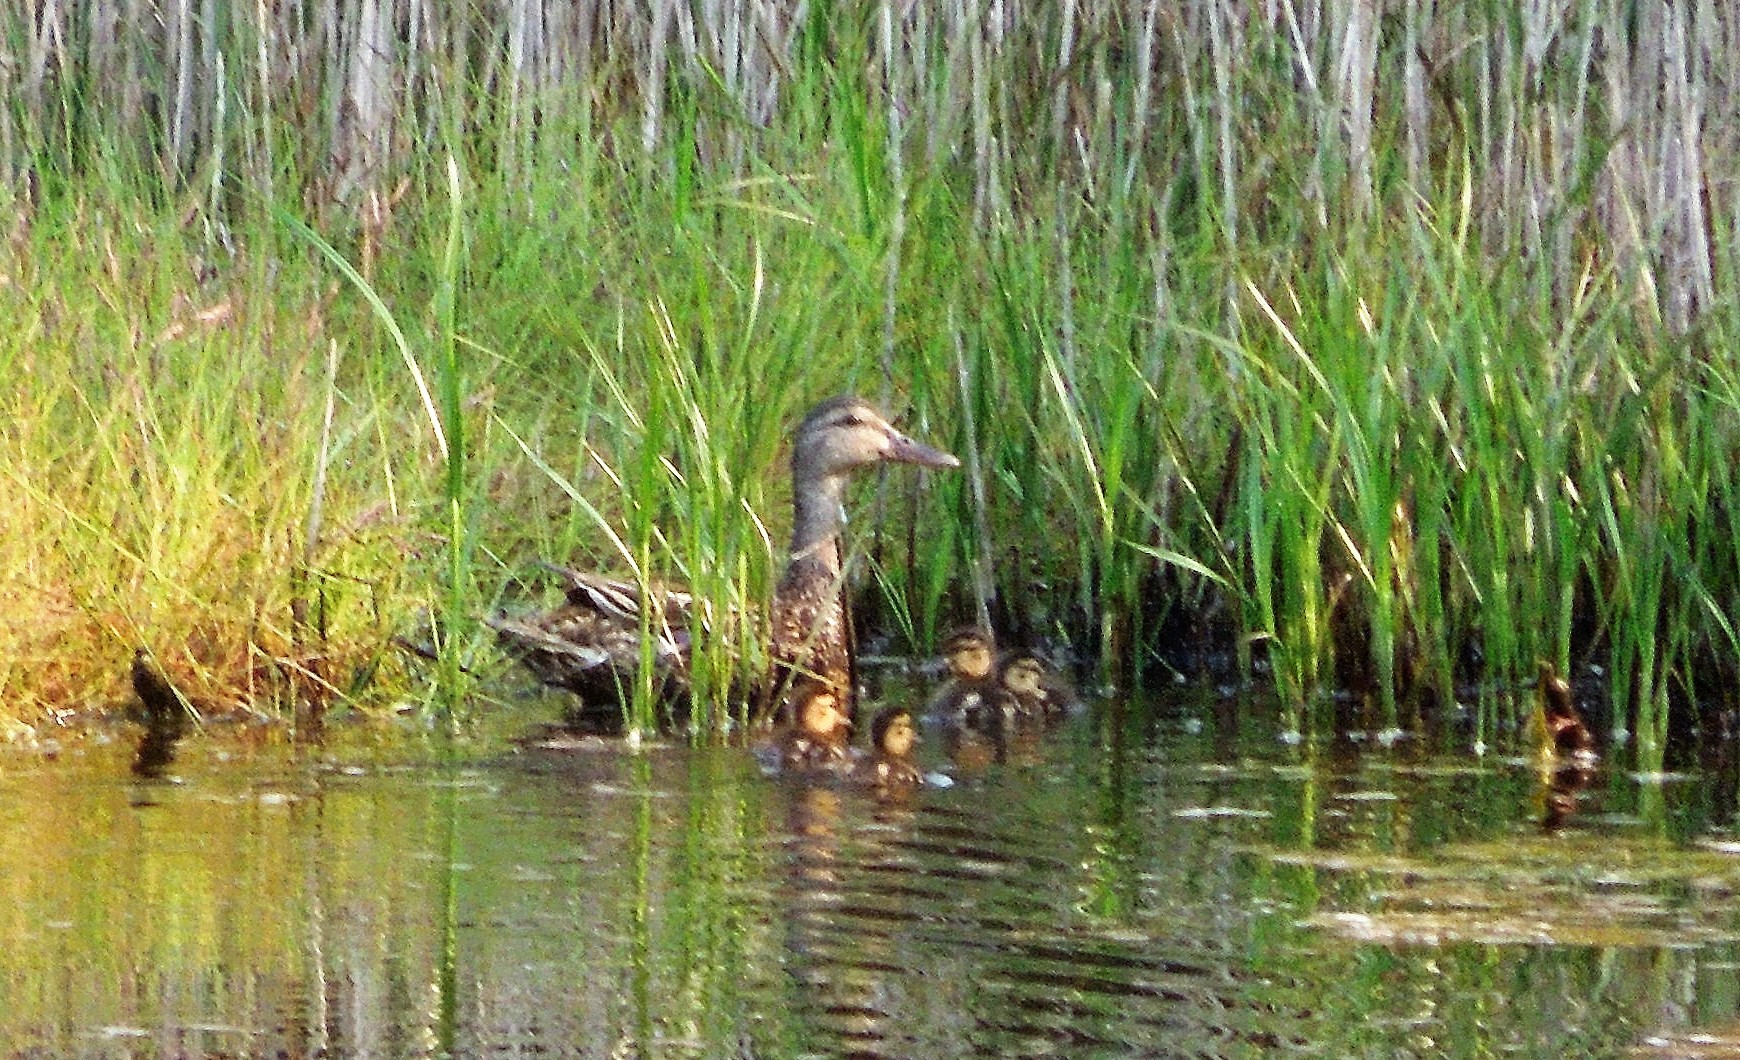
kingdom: Animalia
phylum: Chordata
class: Aves
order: Anseriformes
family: Anatidae
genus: Anas
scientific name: Anas platyrhynchos
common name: Mallard
